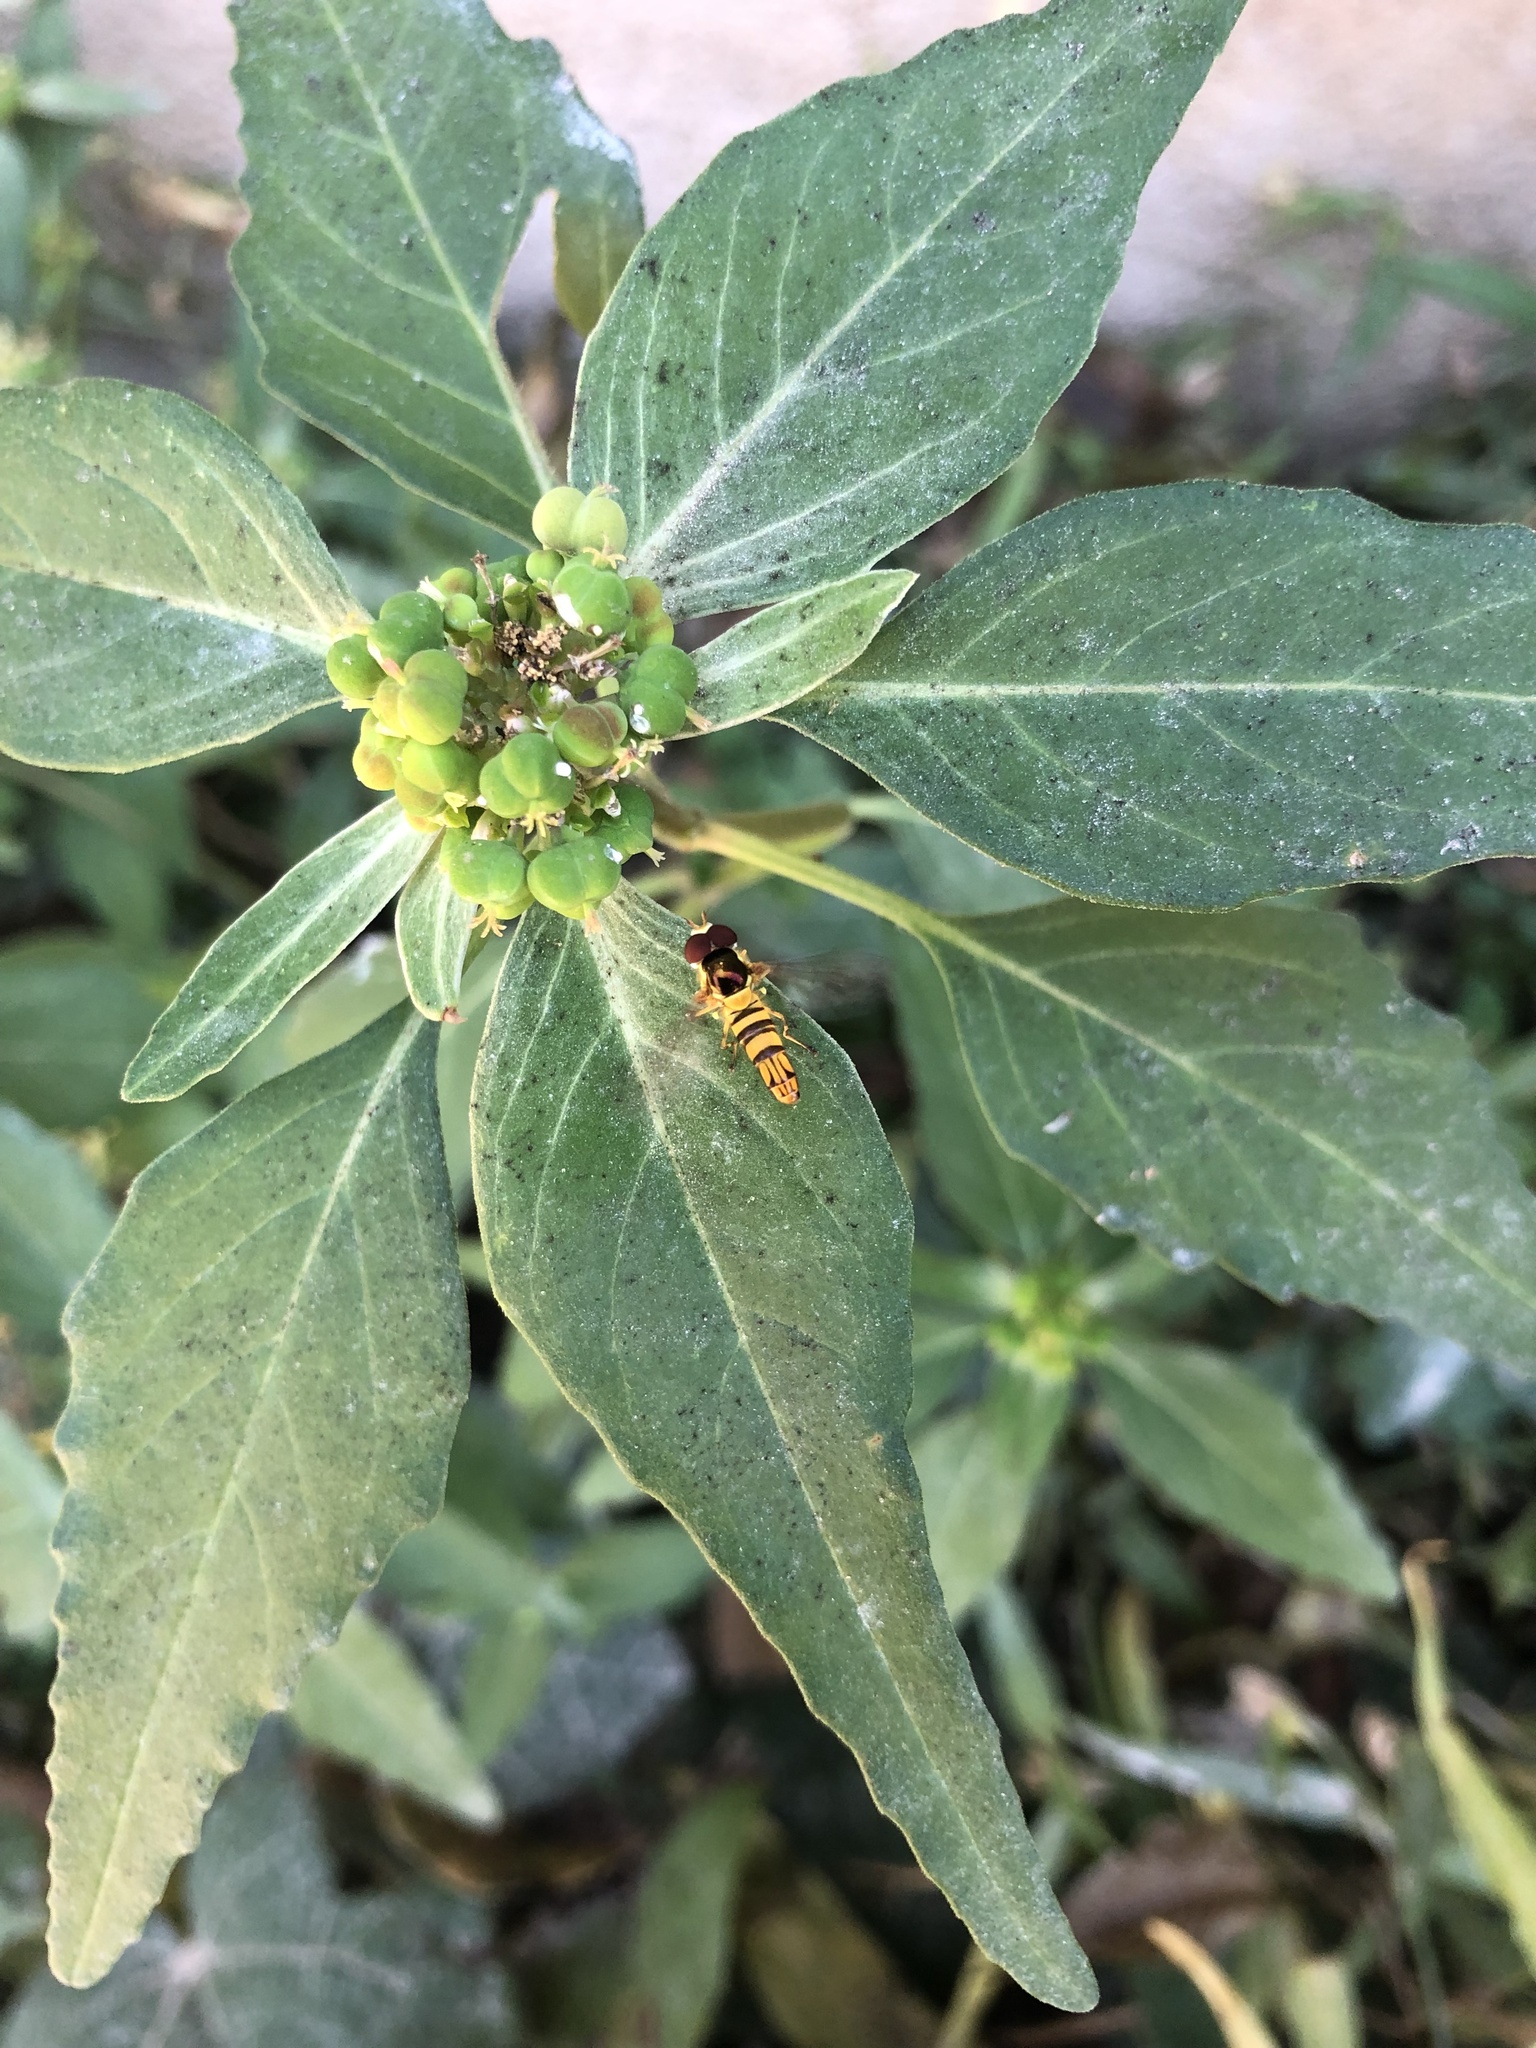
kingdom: Animalia
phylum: Arthropoda
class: Insecta
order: Diptera
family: Syrphidae
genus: Allograpta
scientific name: Allograpta obliqua
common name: Common oblique syrphid
